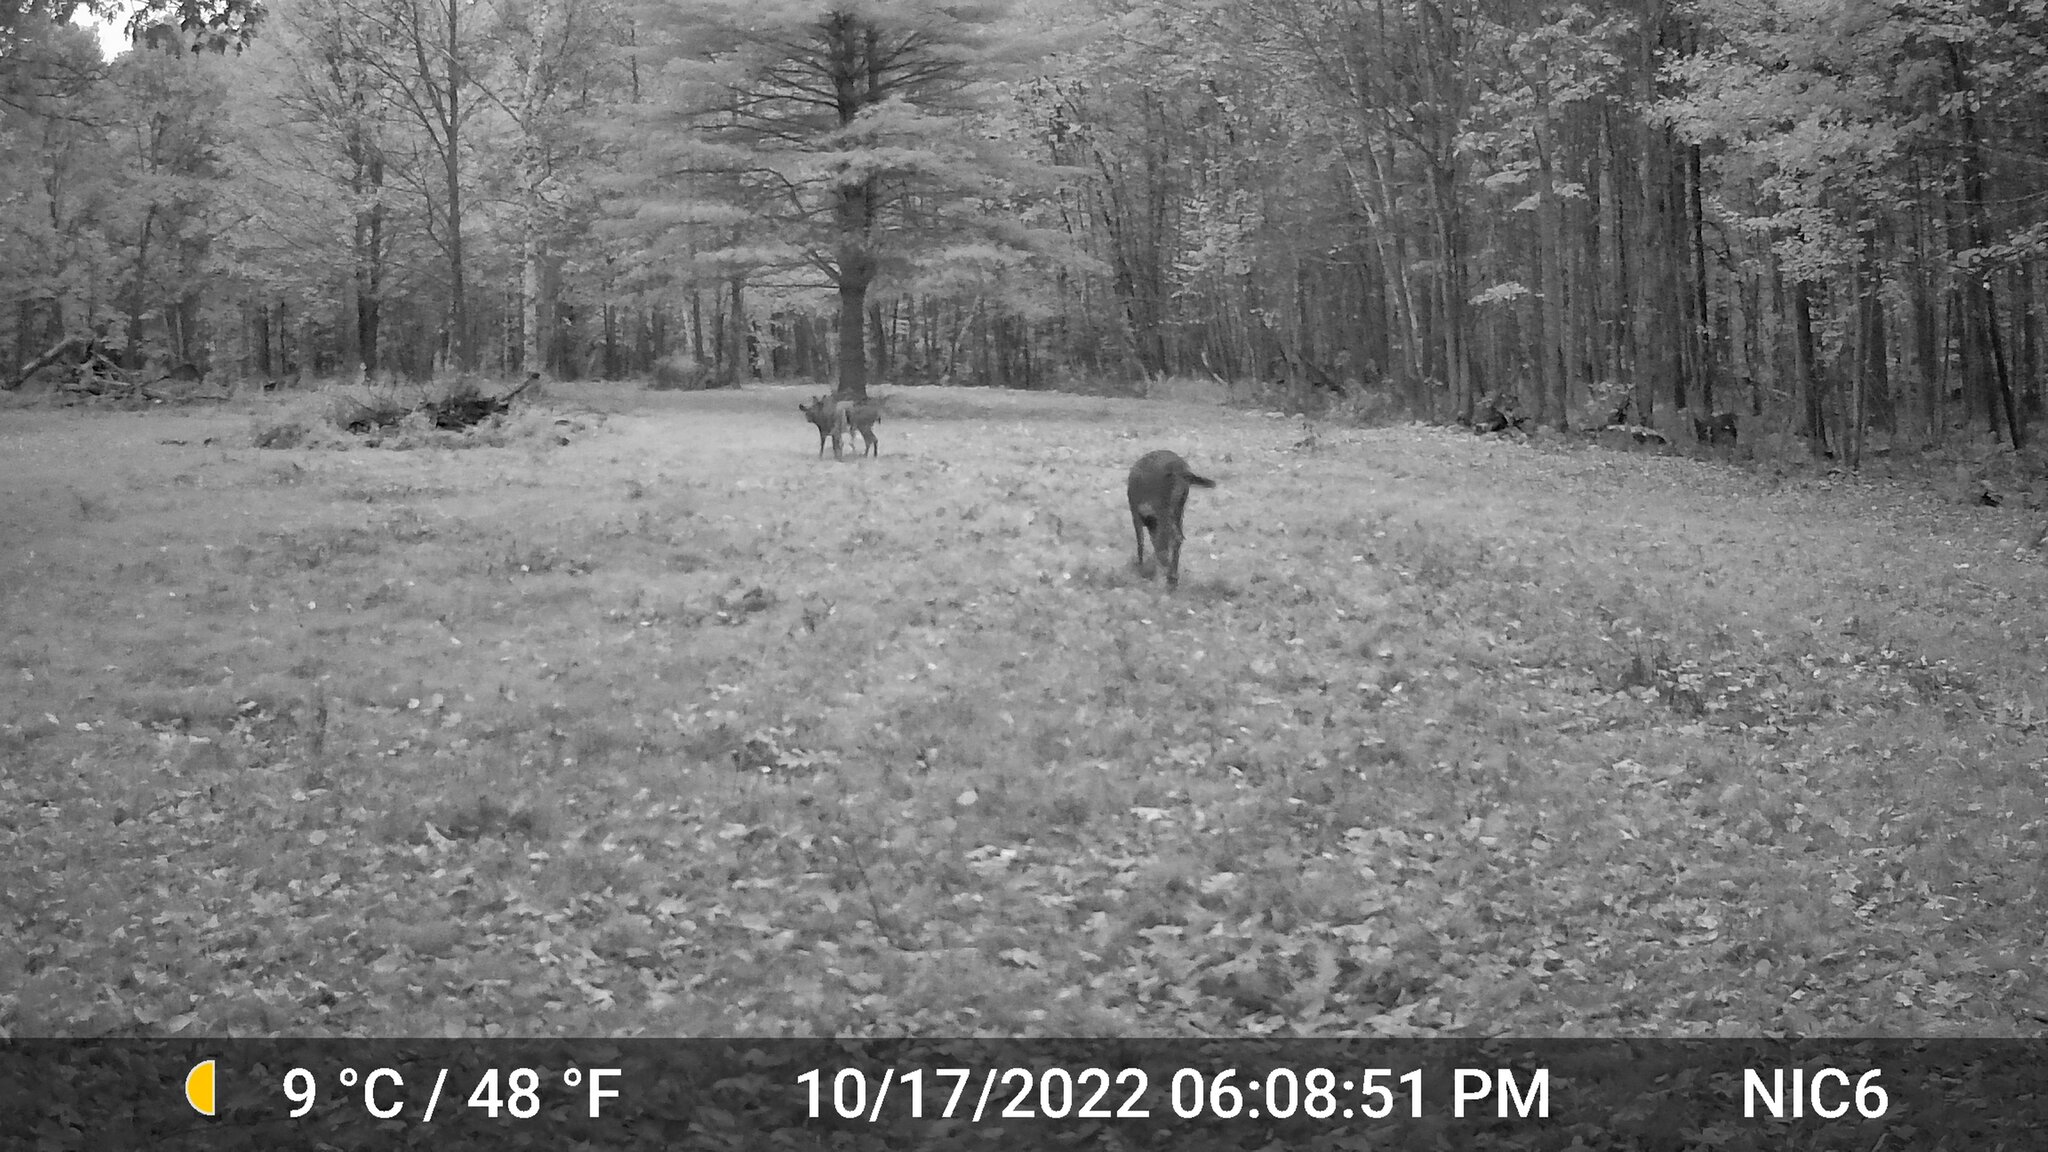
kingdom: Animalia
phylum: Chordata
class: Mammalia
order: Artiodactyla
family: Cervidae
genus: Odocoileus
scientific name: Odocoileus virginianus
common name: White-tailed deer
